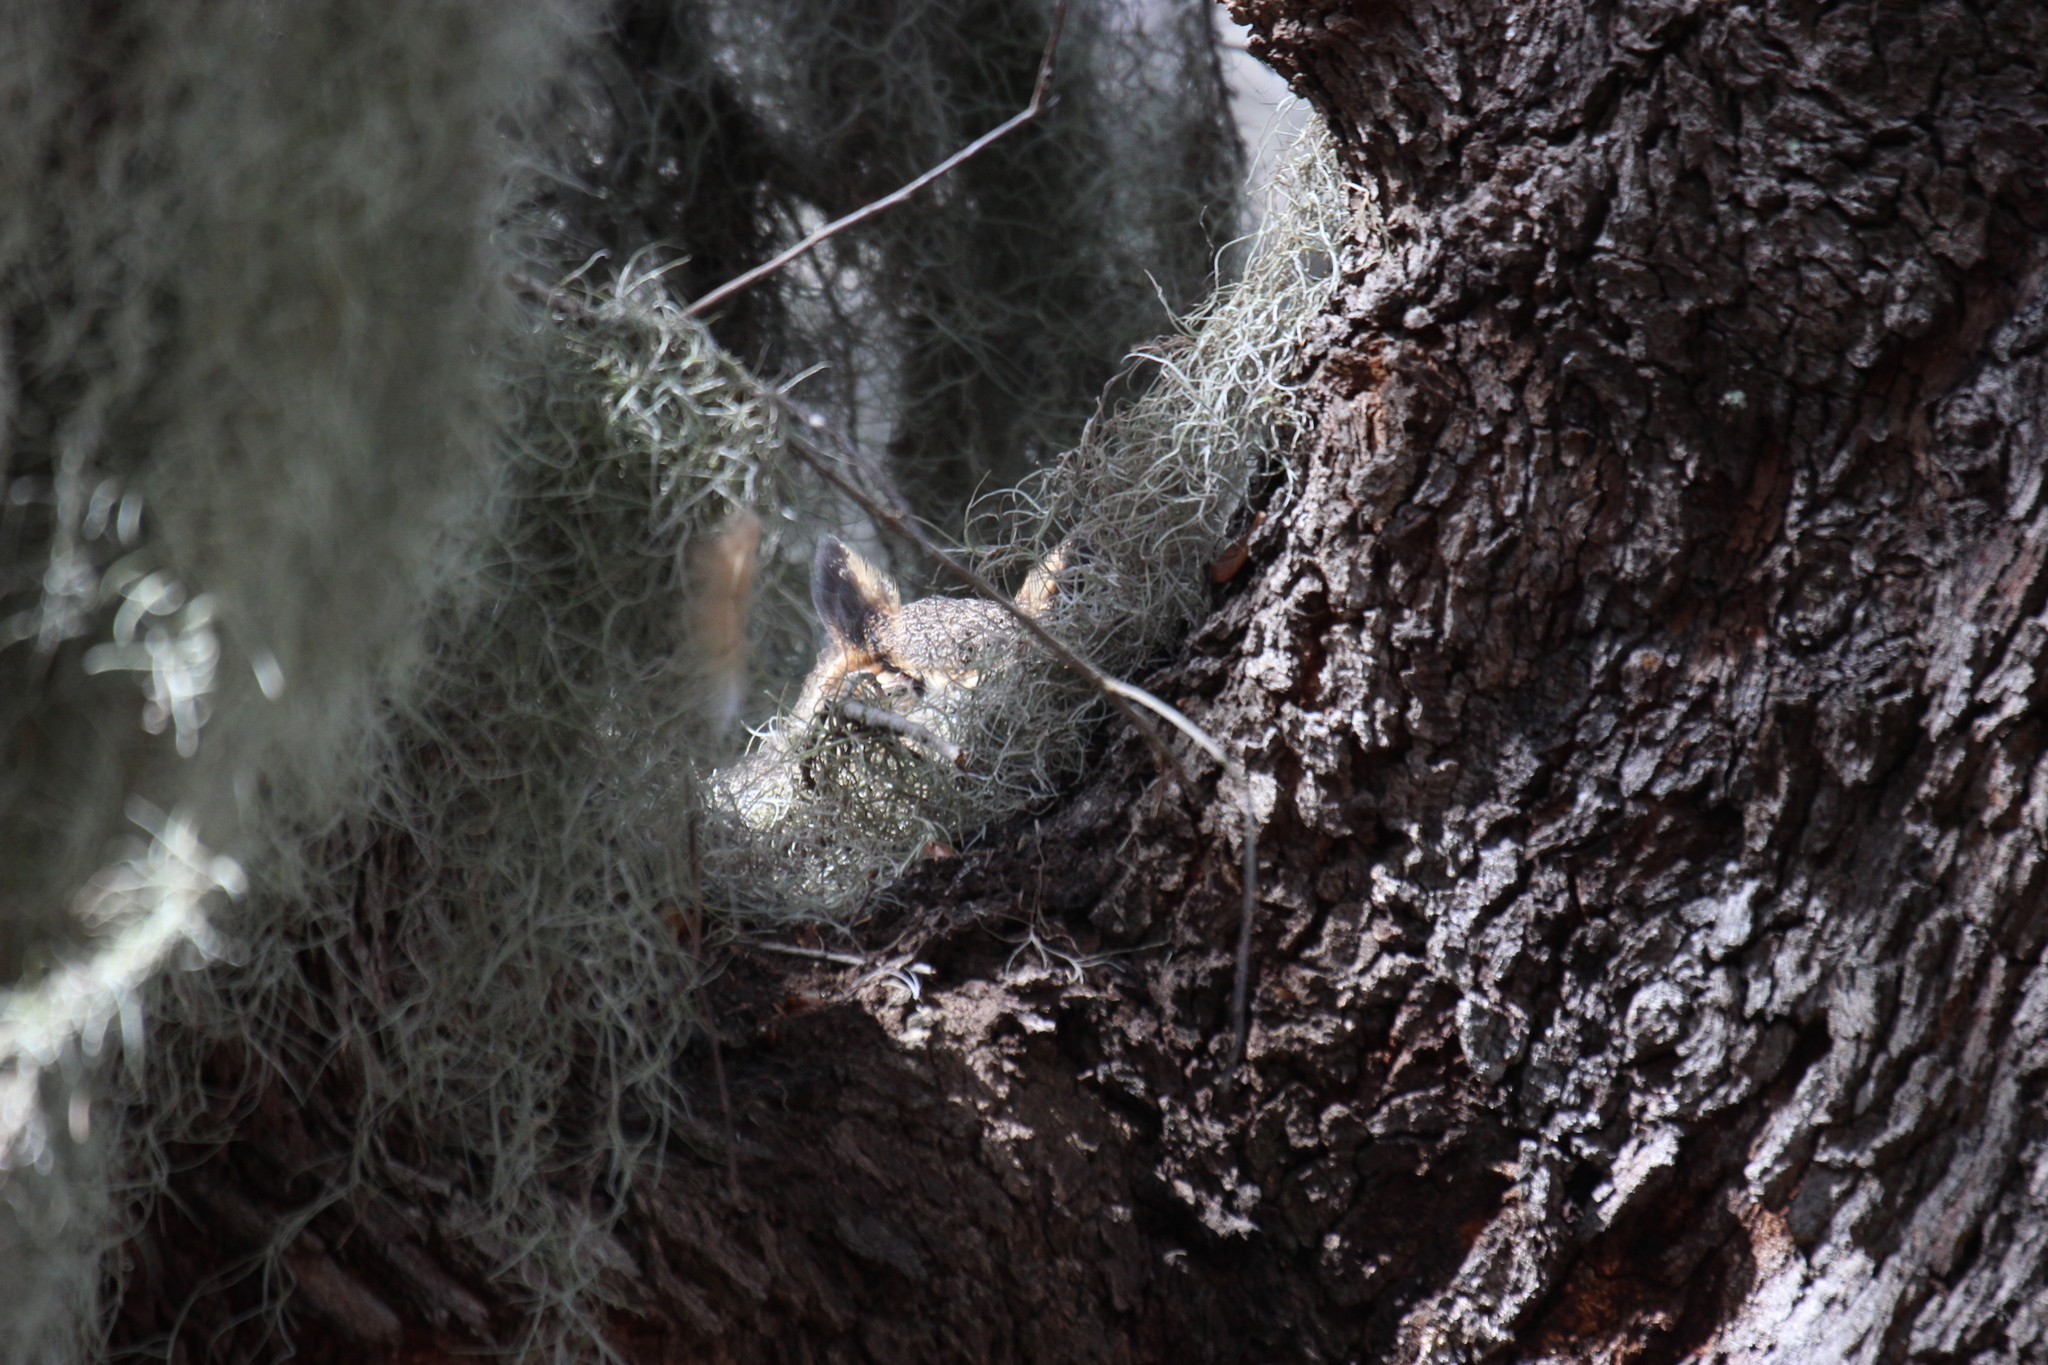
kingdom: Animalia
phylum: Chordata
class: Aves
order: Strigiformes
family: Strigidae
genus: Bubo
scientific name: Bubo virginianus
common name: Great horned owl
